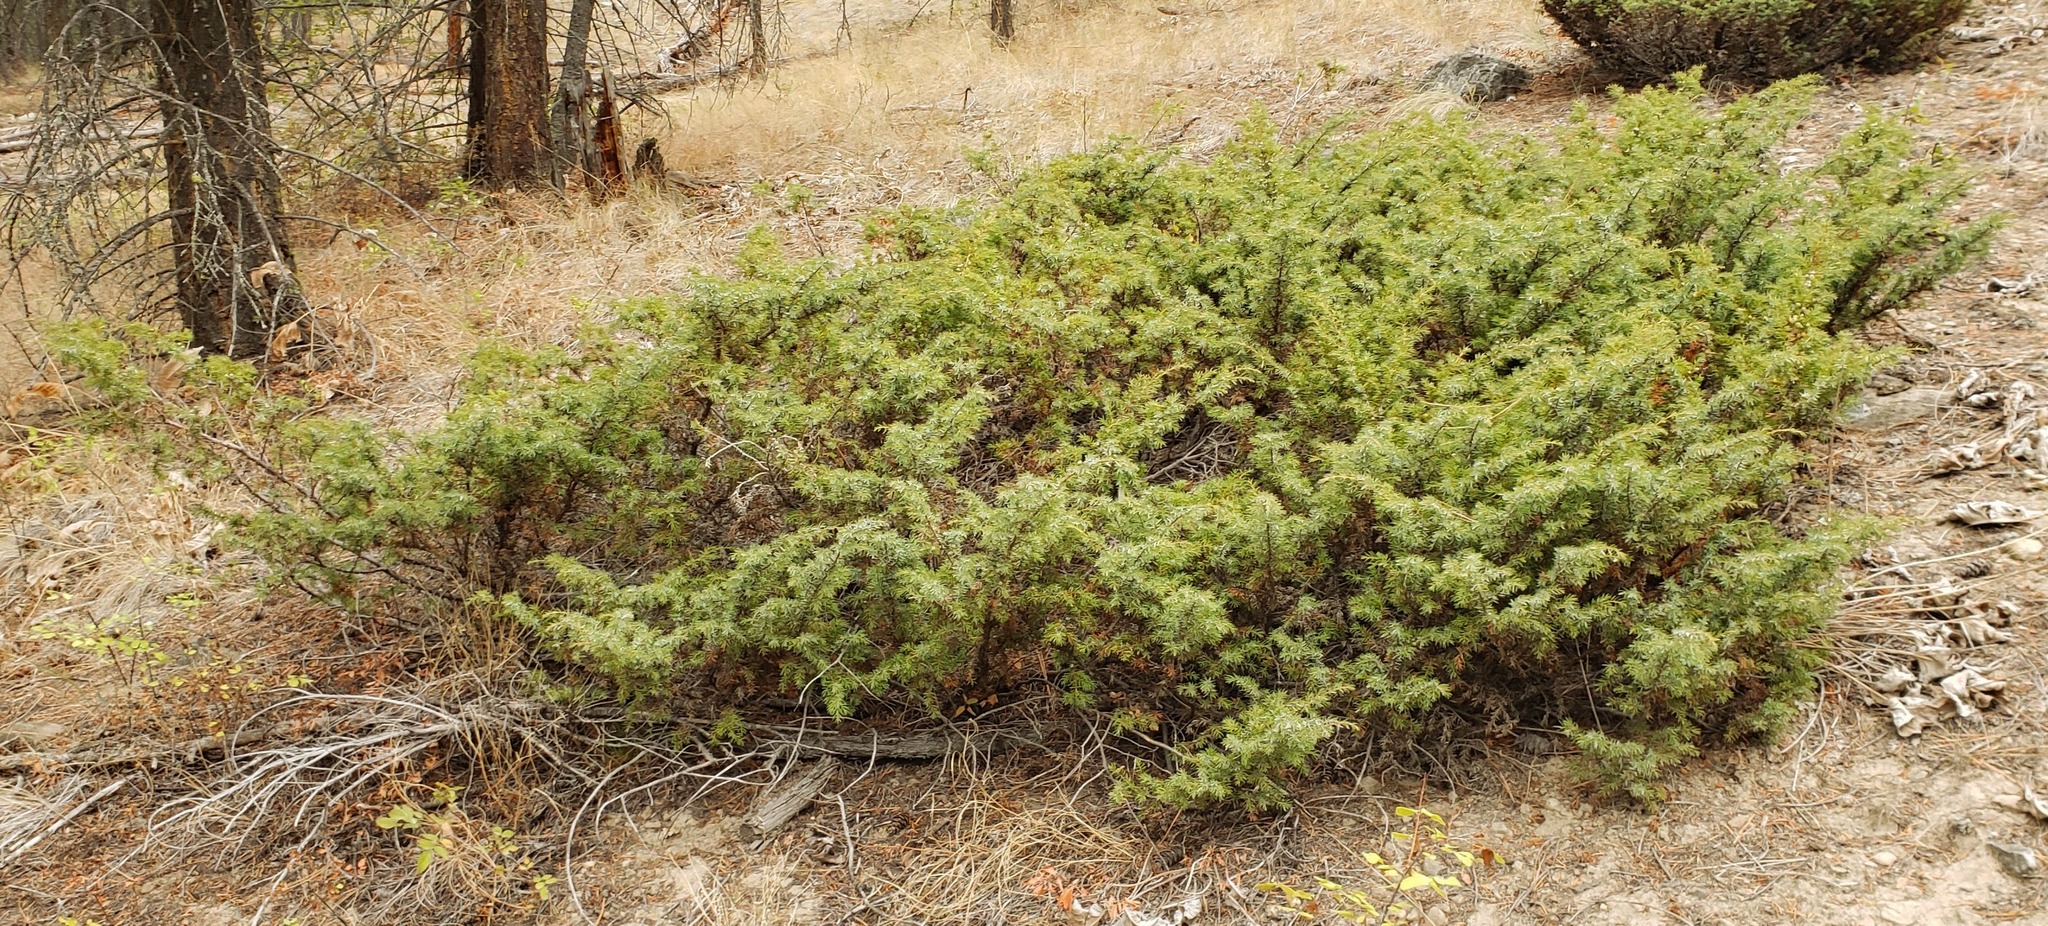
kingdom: Plantae
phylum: Tracheophyta
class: Pinopsida
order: Pinales
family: Cupressaceae
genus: Juniperus
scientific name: Juniperus communis
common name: Common juniper
